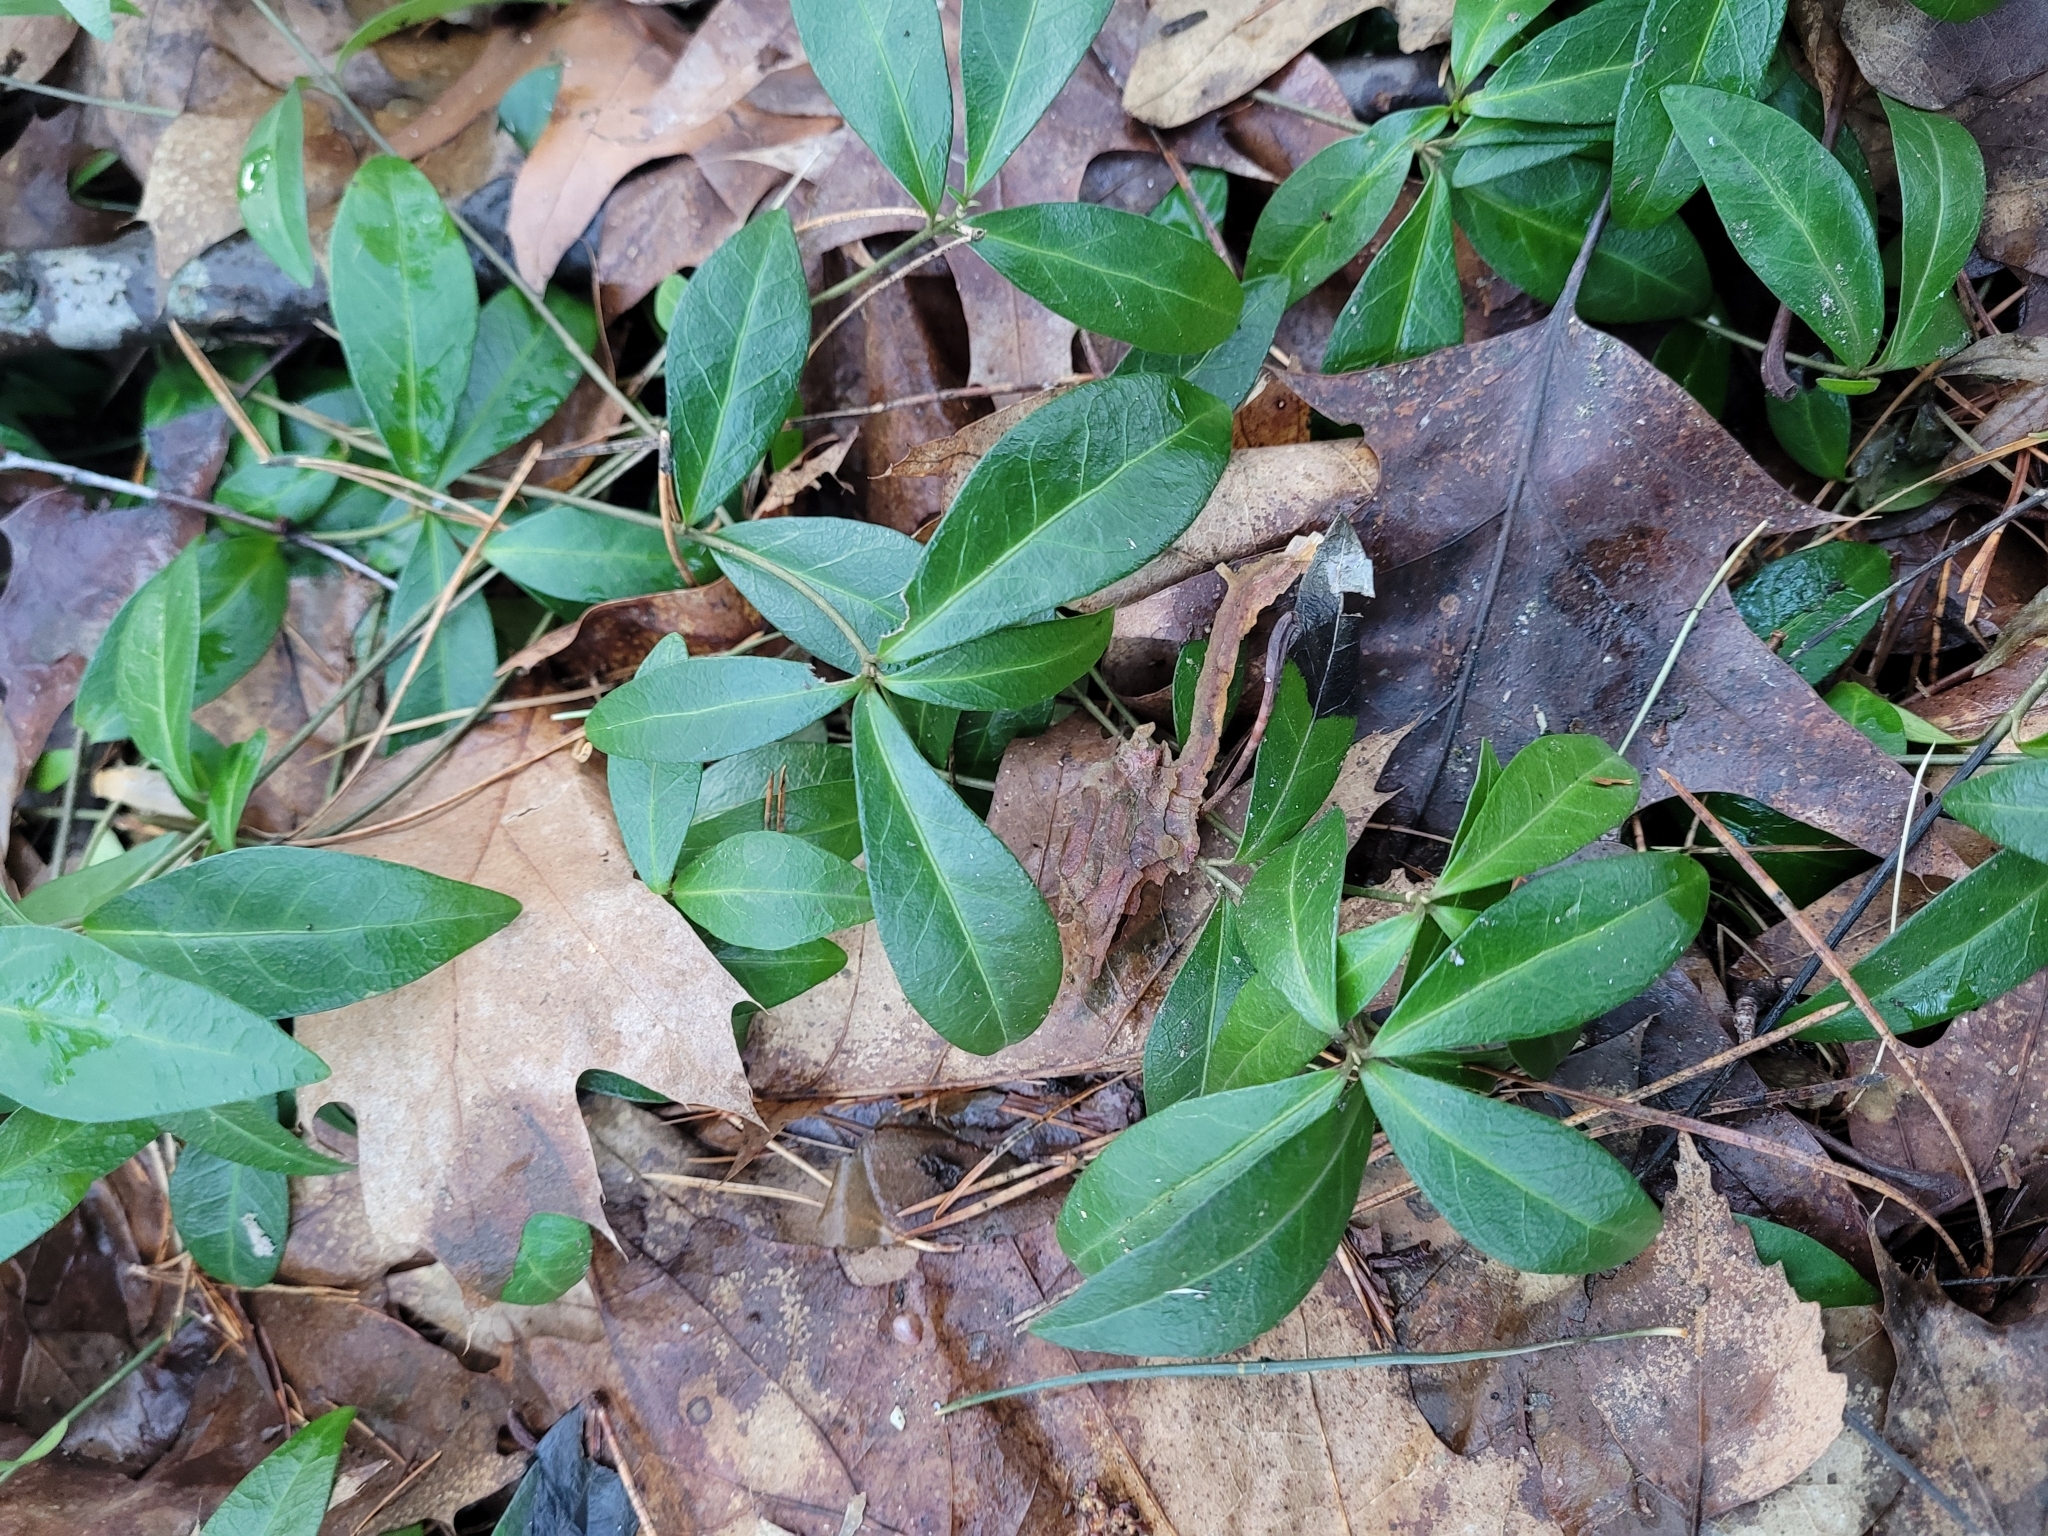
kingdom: Plantae
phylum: Tracheophyta
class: Magnoliopsida
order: Gentianales
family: Apocynaceae
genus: Vinca
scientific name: Vinca minor
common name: Lesser periwinkle
